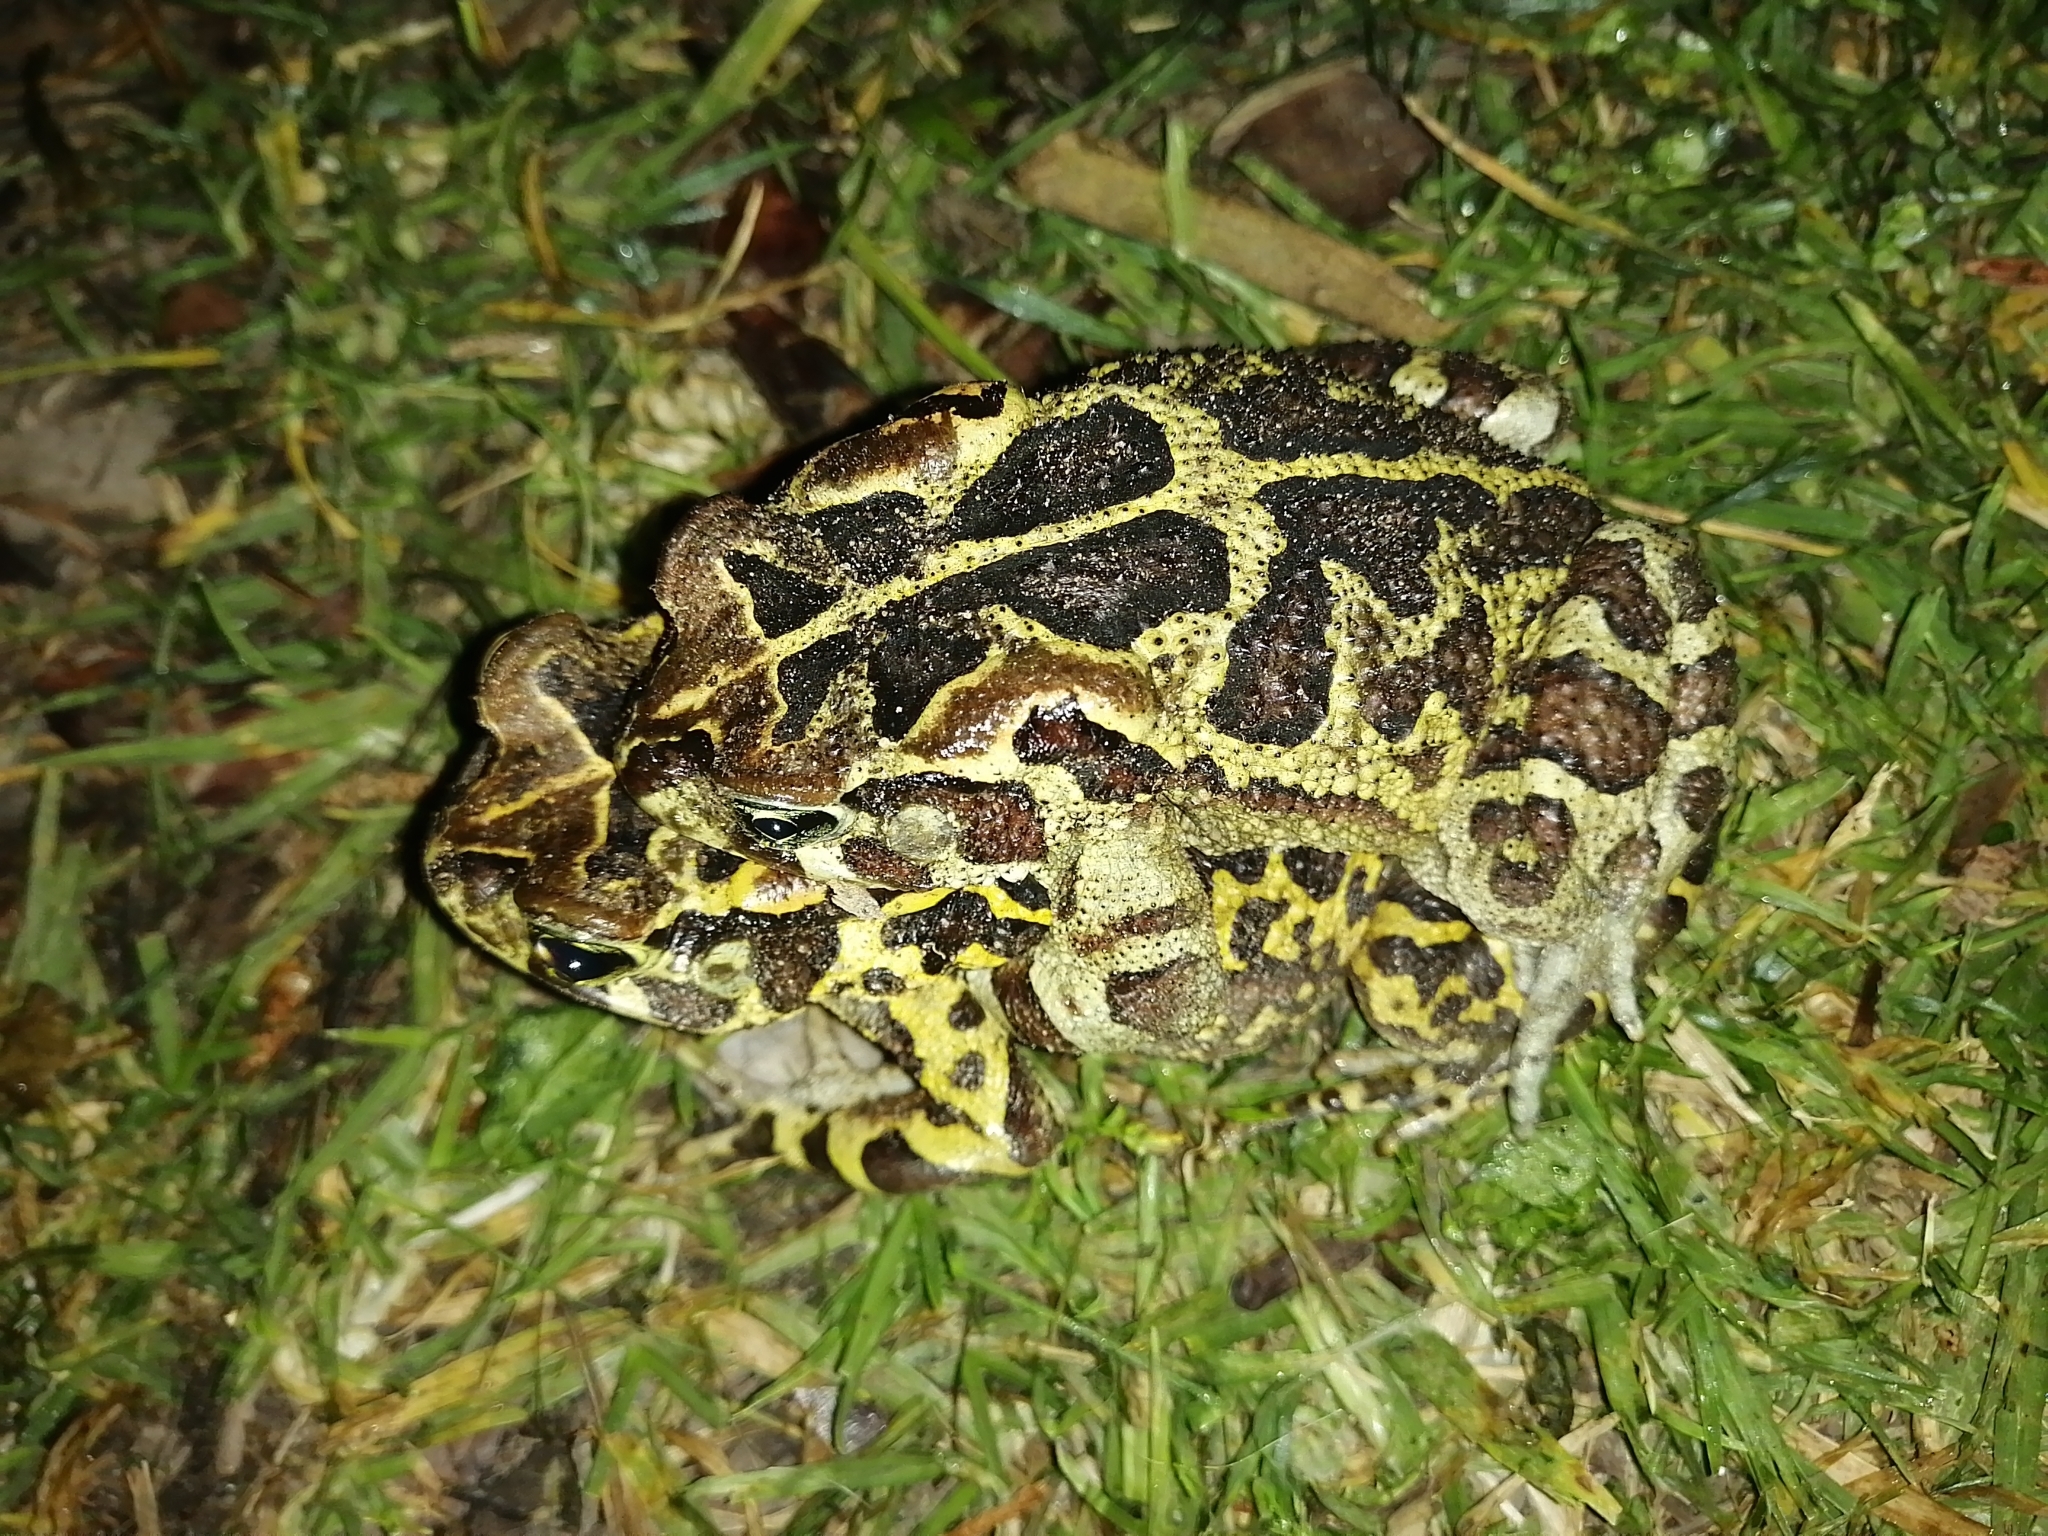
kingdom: Animalia
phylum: Chordata
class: Amphibia
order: Anura
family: Bufonidae
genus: Sclerophrys
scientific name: Sclerophrys pantherina
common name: Panther toad
